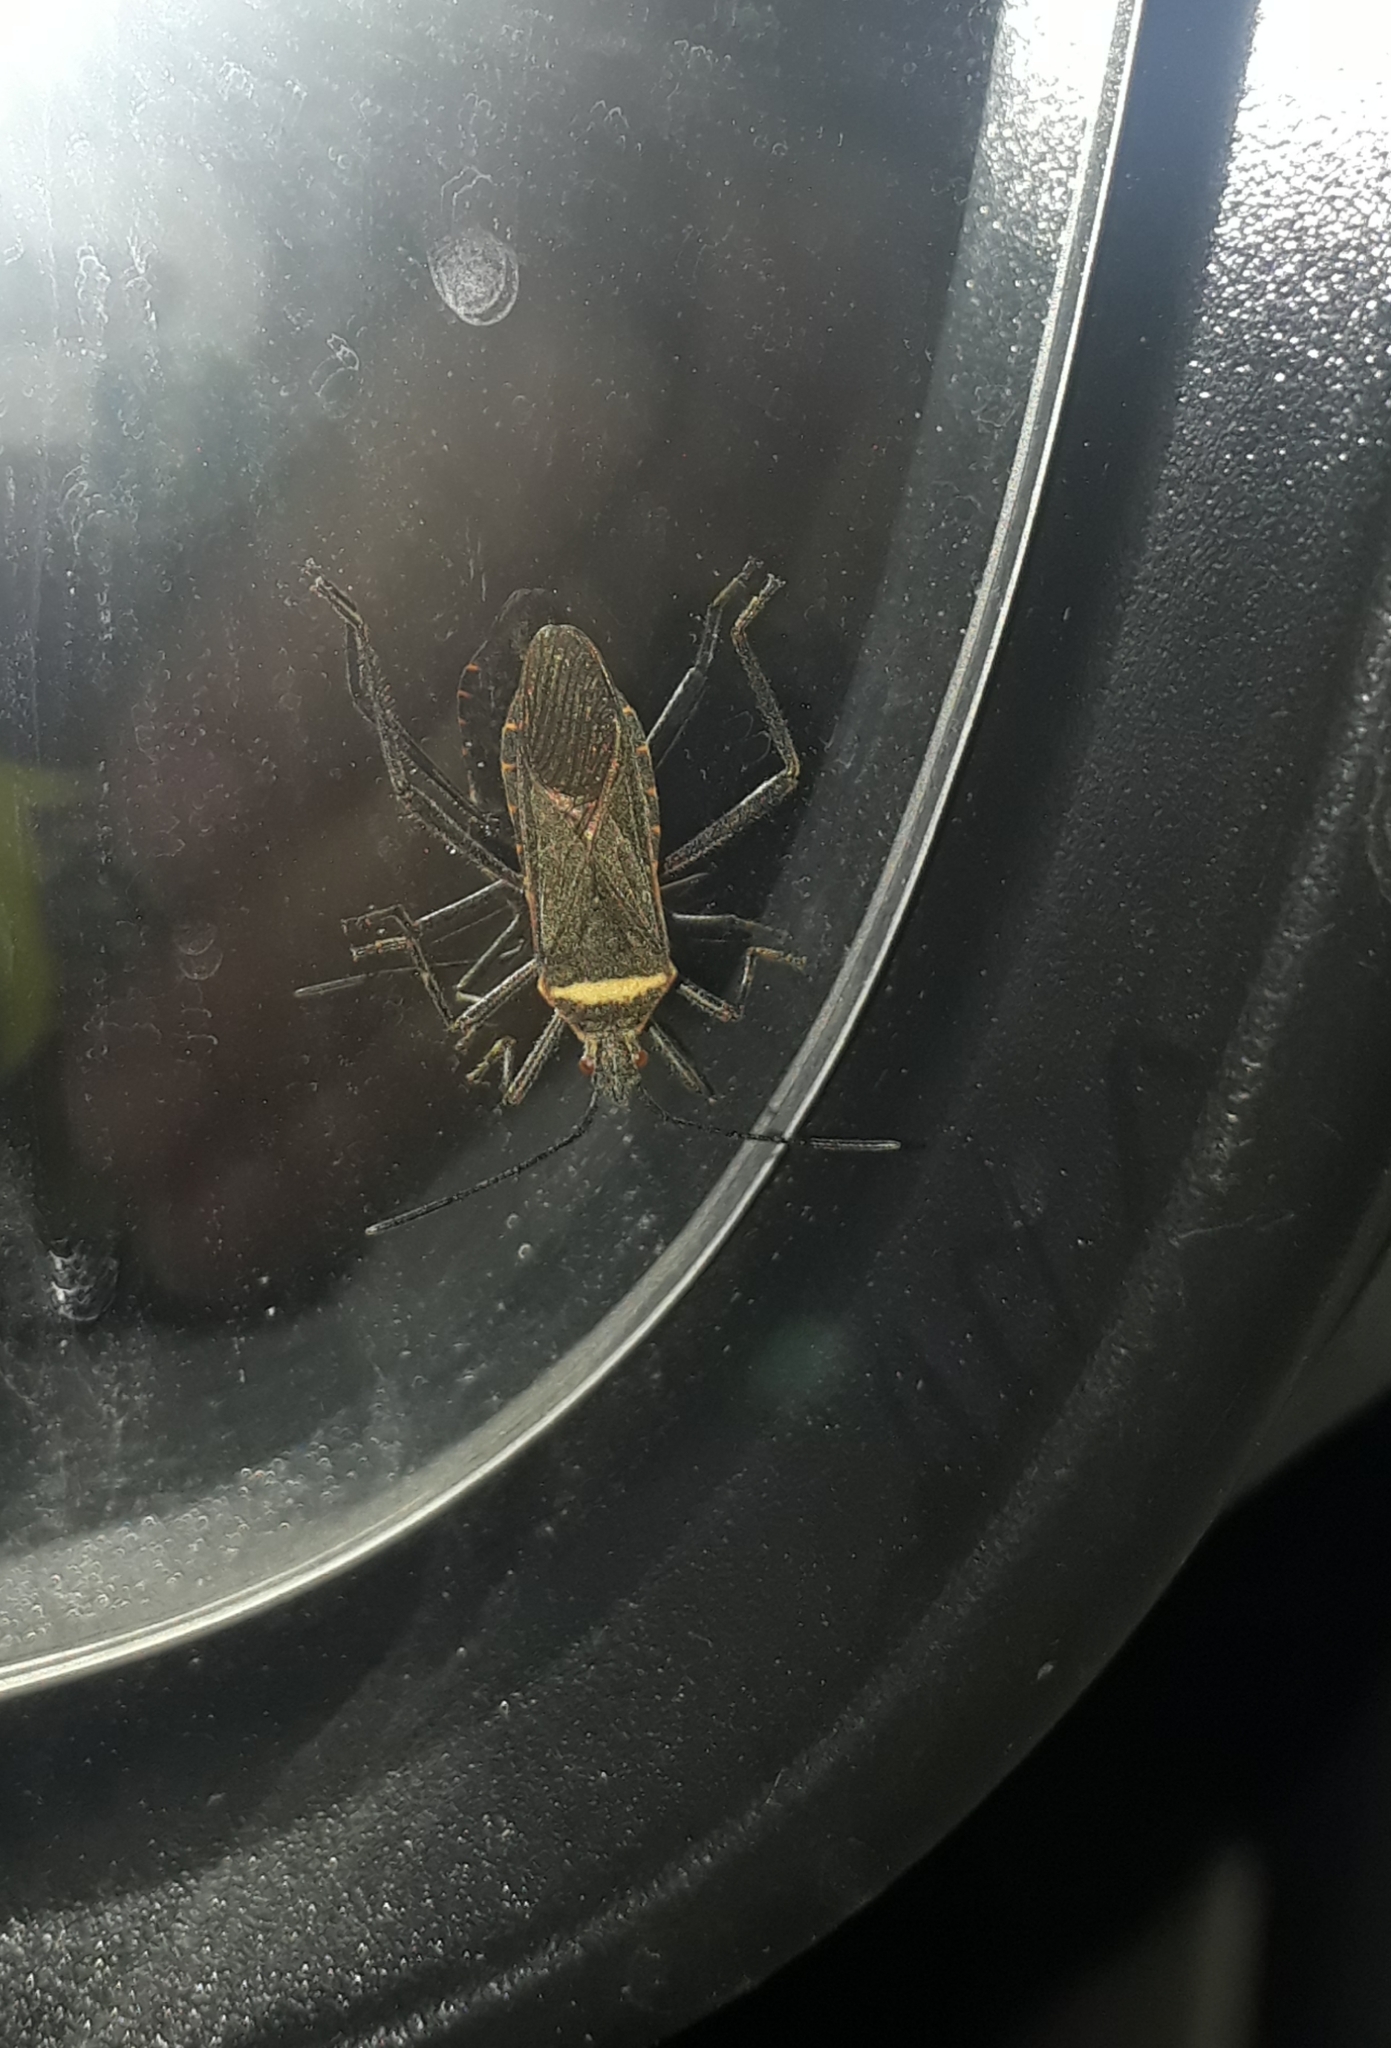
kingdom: Animalia
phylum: Arthropoda
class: Insecta
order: Hemiptera
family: Coreidae
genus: Phthiacnemia
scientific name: Phthiacnemia picta
